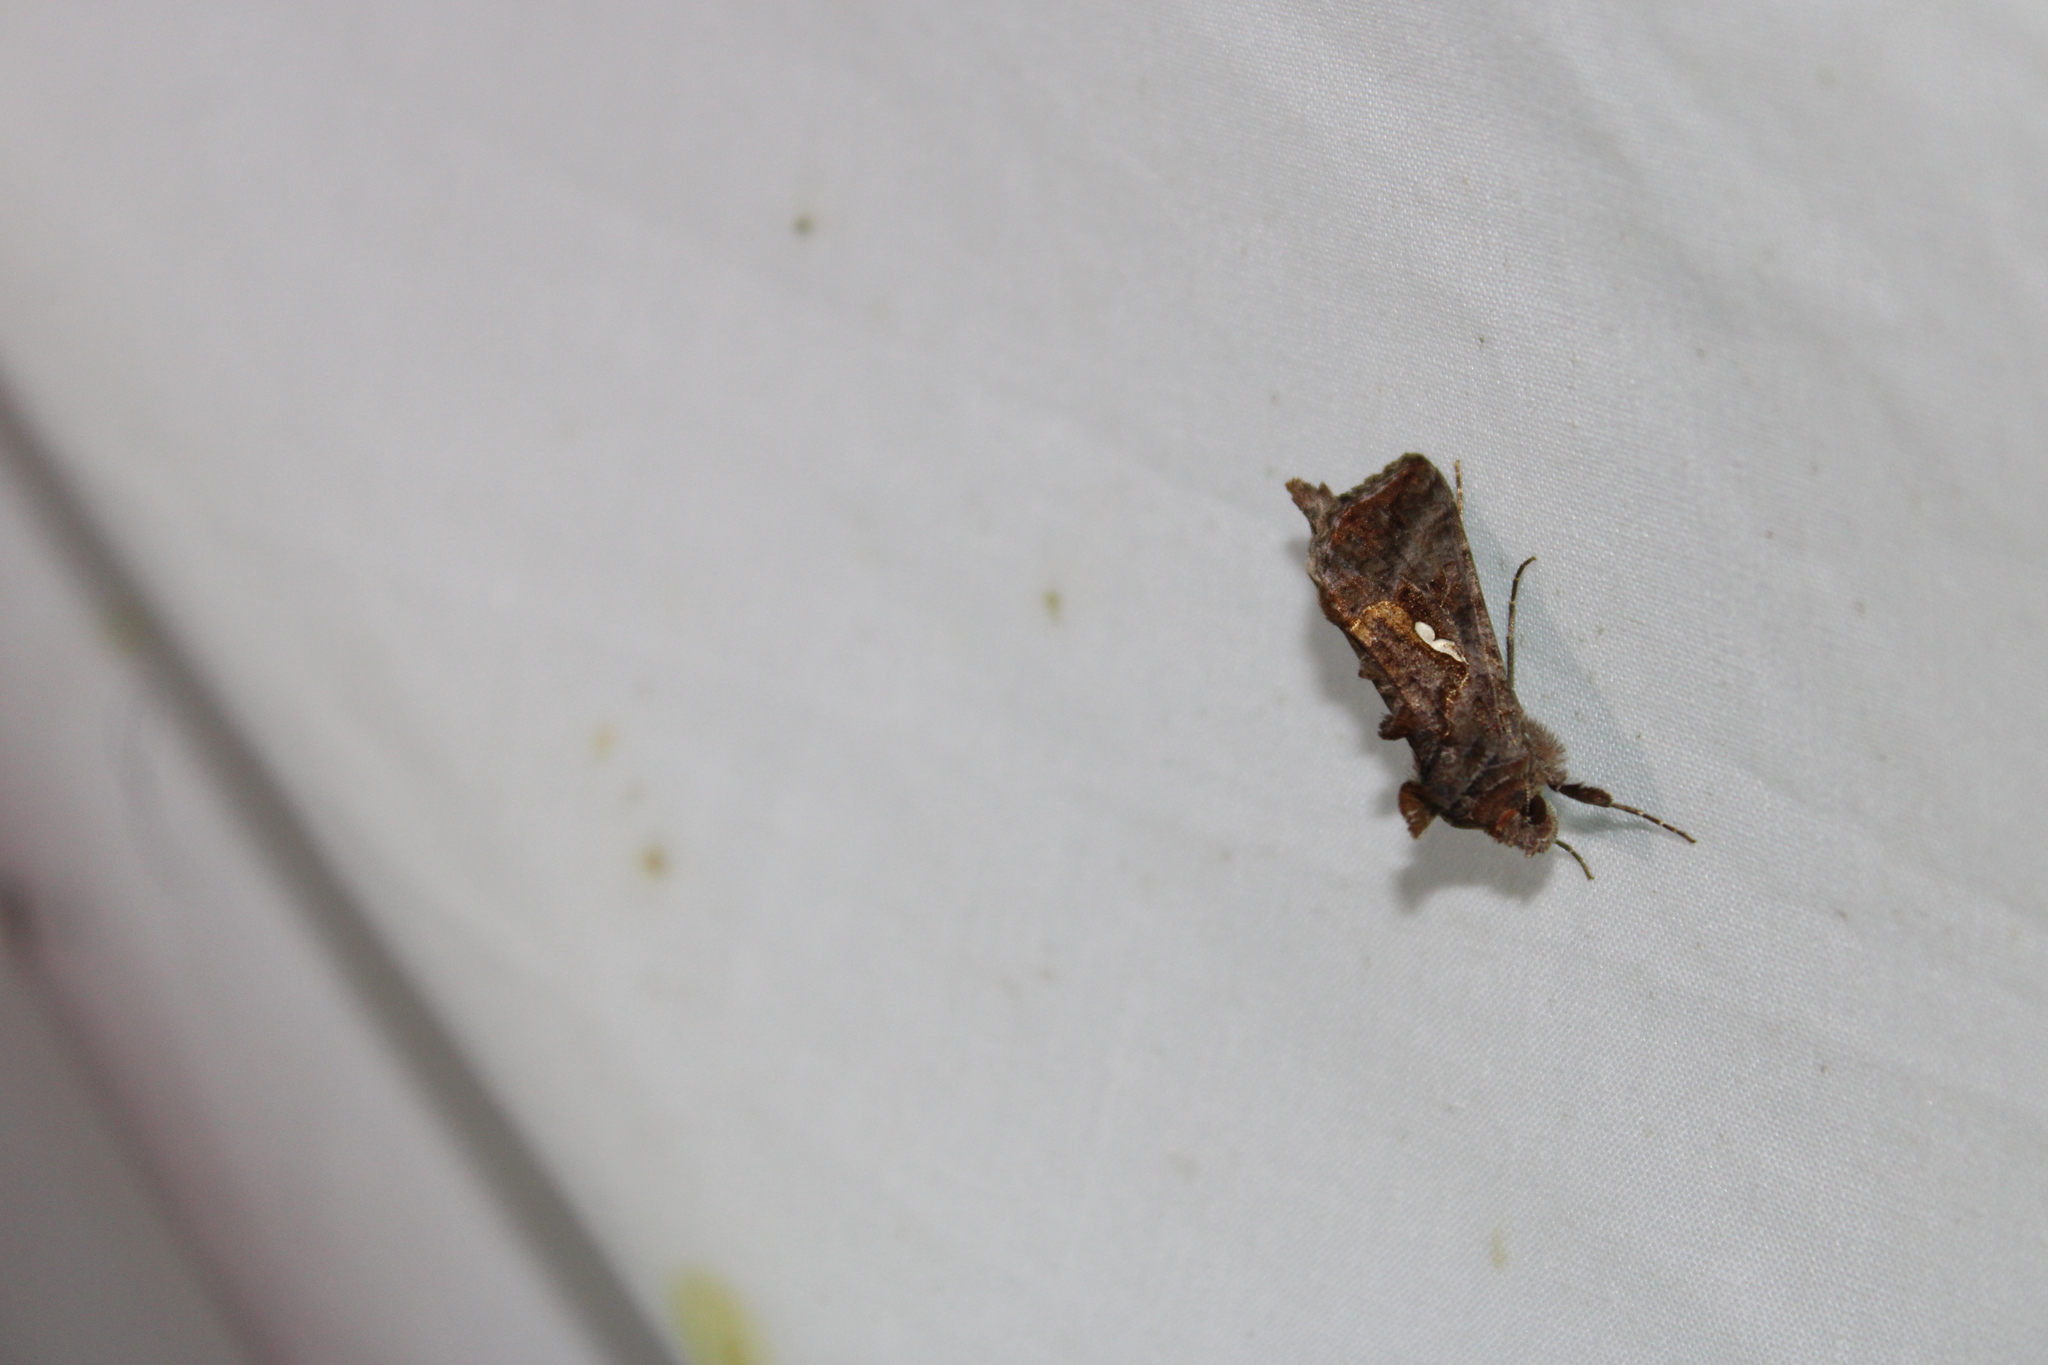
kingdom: Animalia
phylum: Arthropoda
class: Insecta
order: Lepidoptera
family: Noctuidae
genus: Autographa
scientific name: Autographa precationis
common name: Common looper moth
